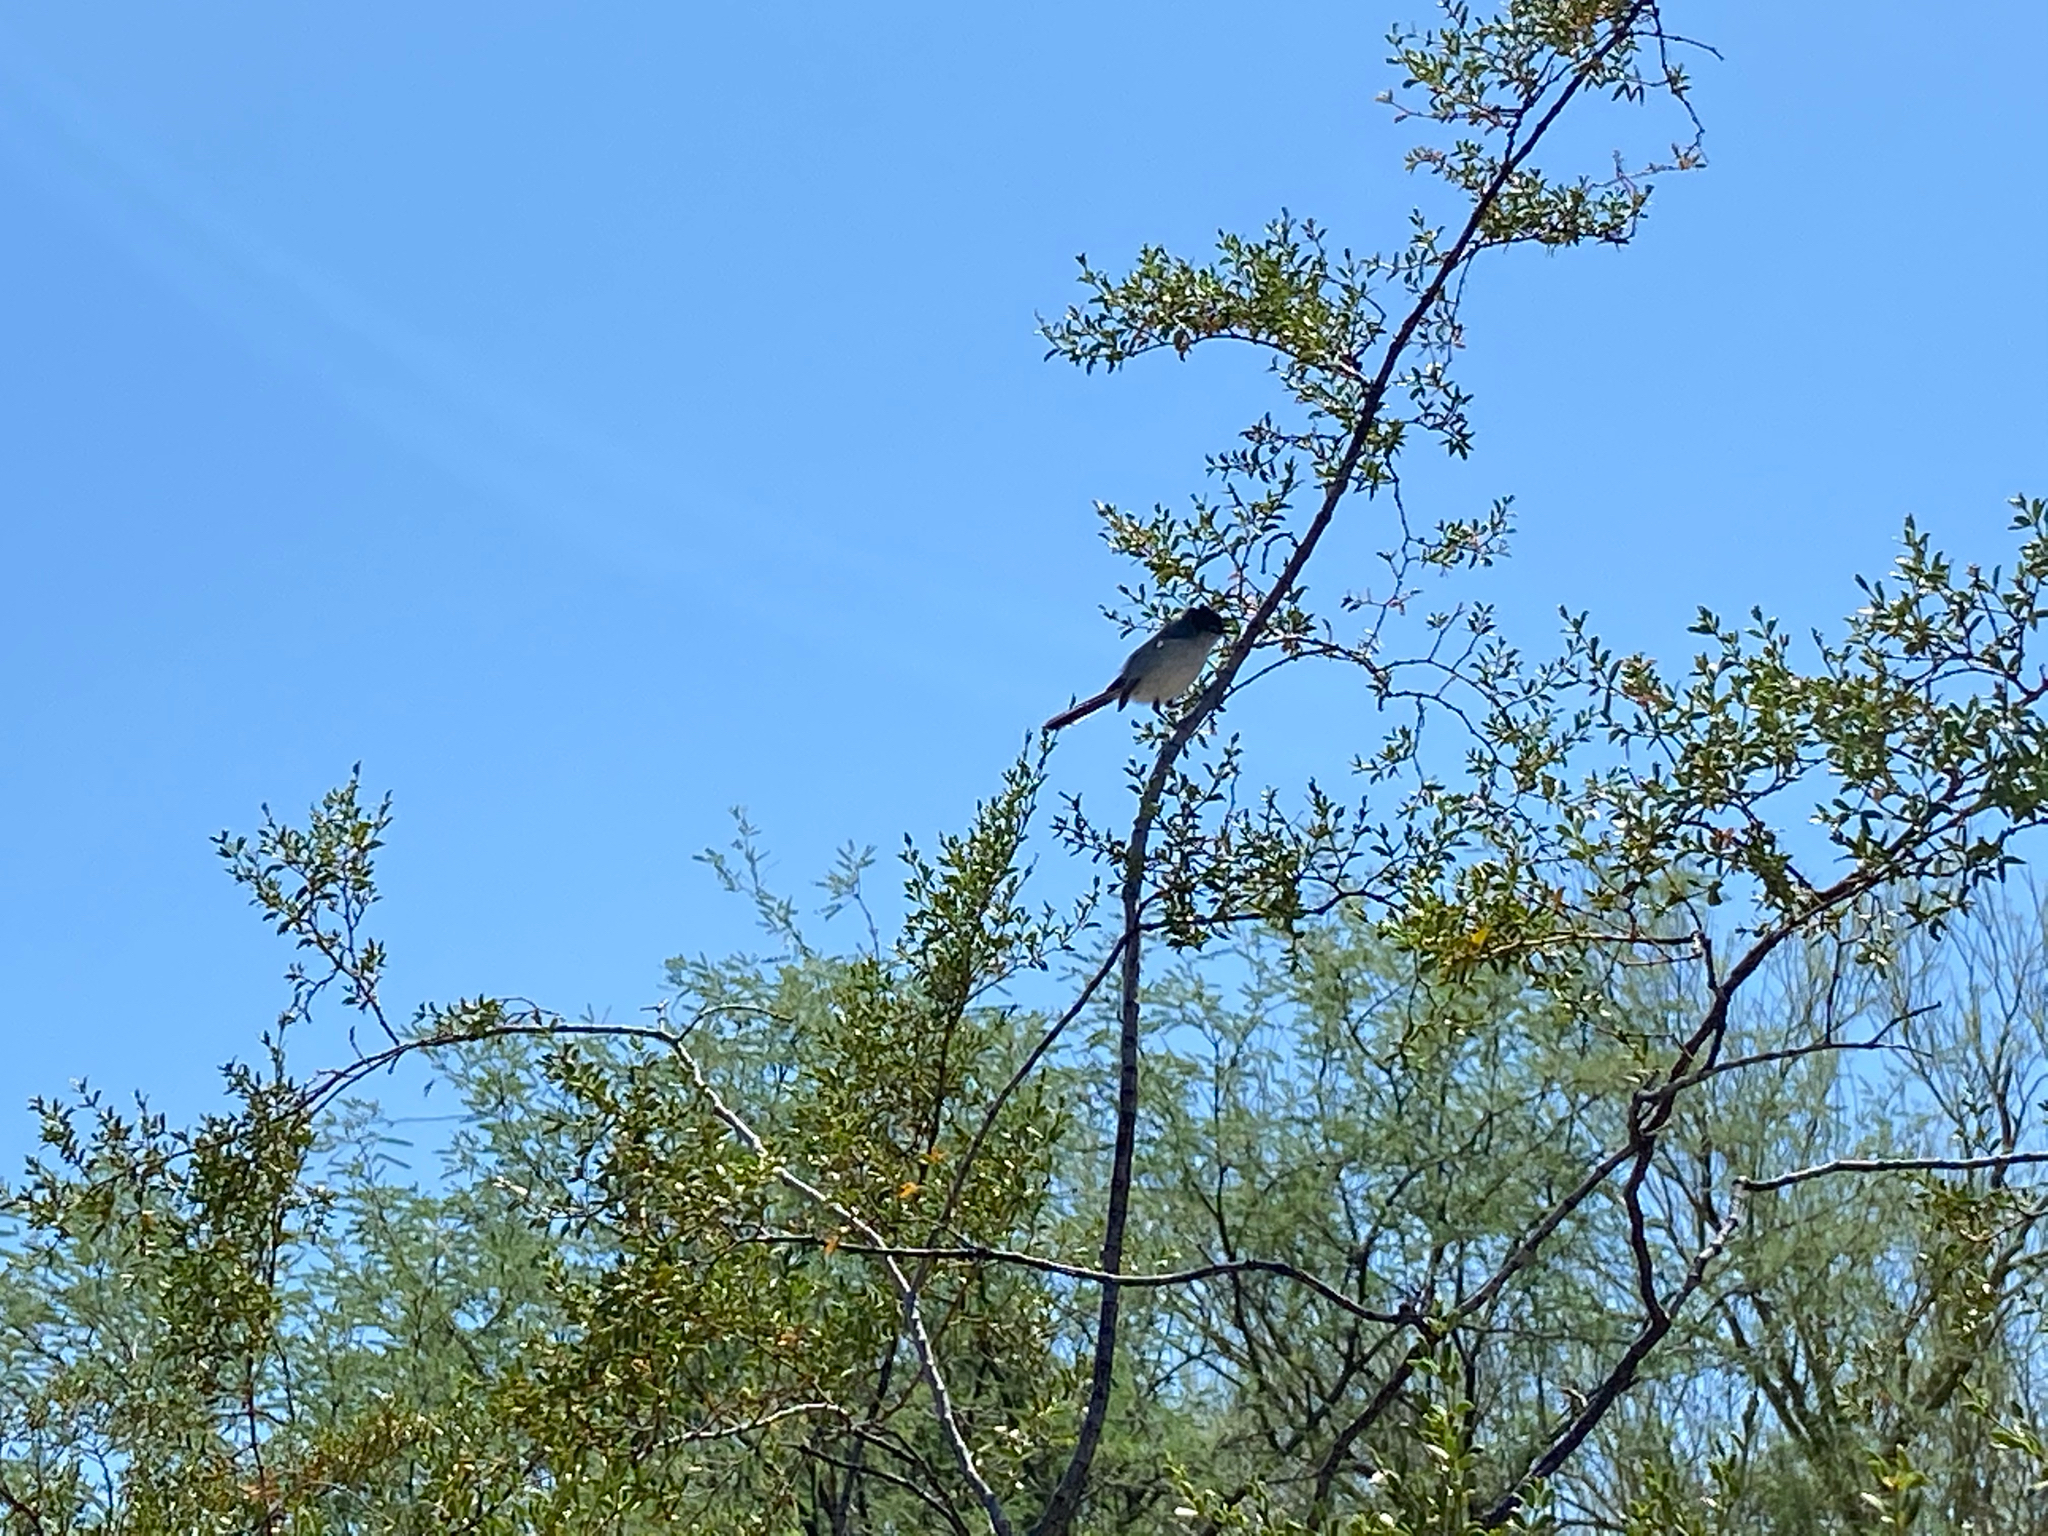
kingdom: Animalia
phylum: Chordata
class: Aves
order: Passeriformes
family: Polioptilidae
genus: Polioptila
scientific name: Polioptila melanura
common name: Black-tailed gnatcatcher
